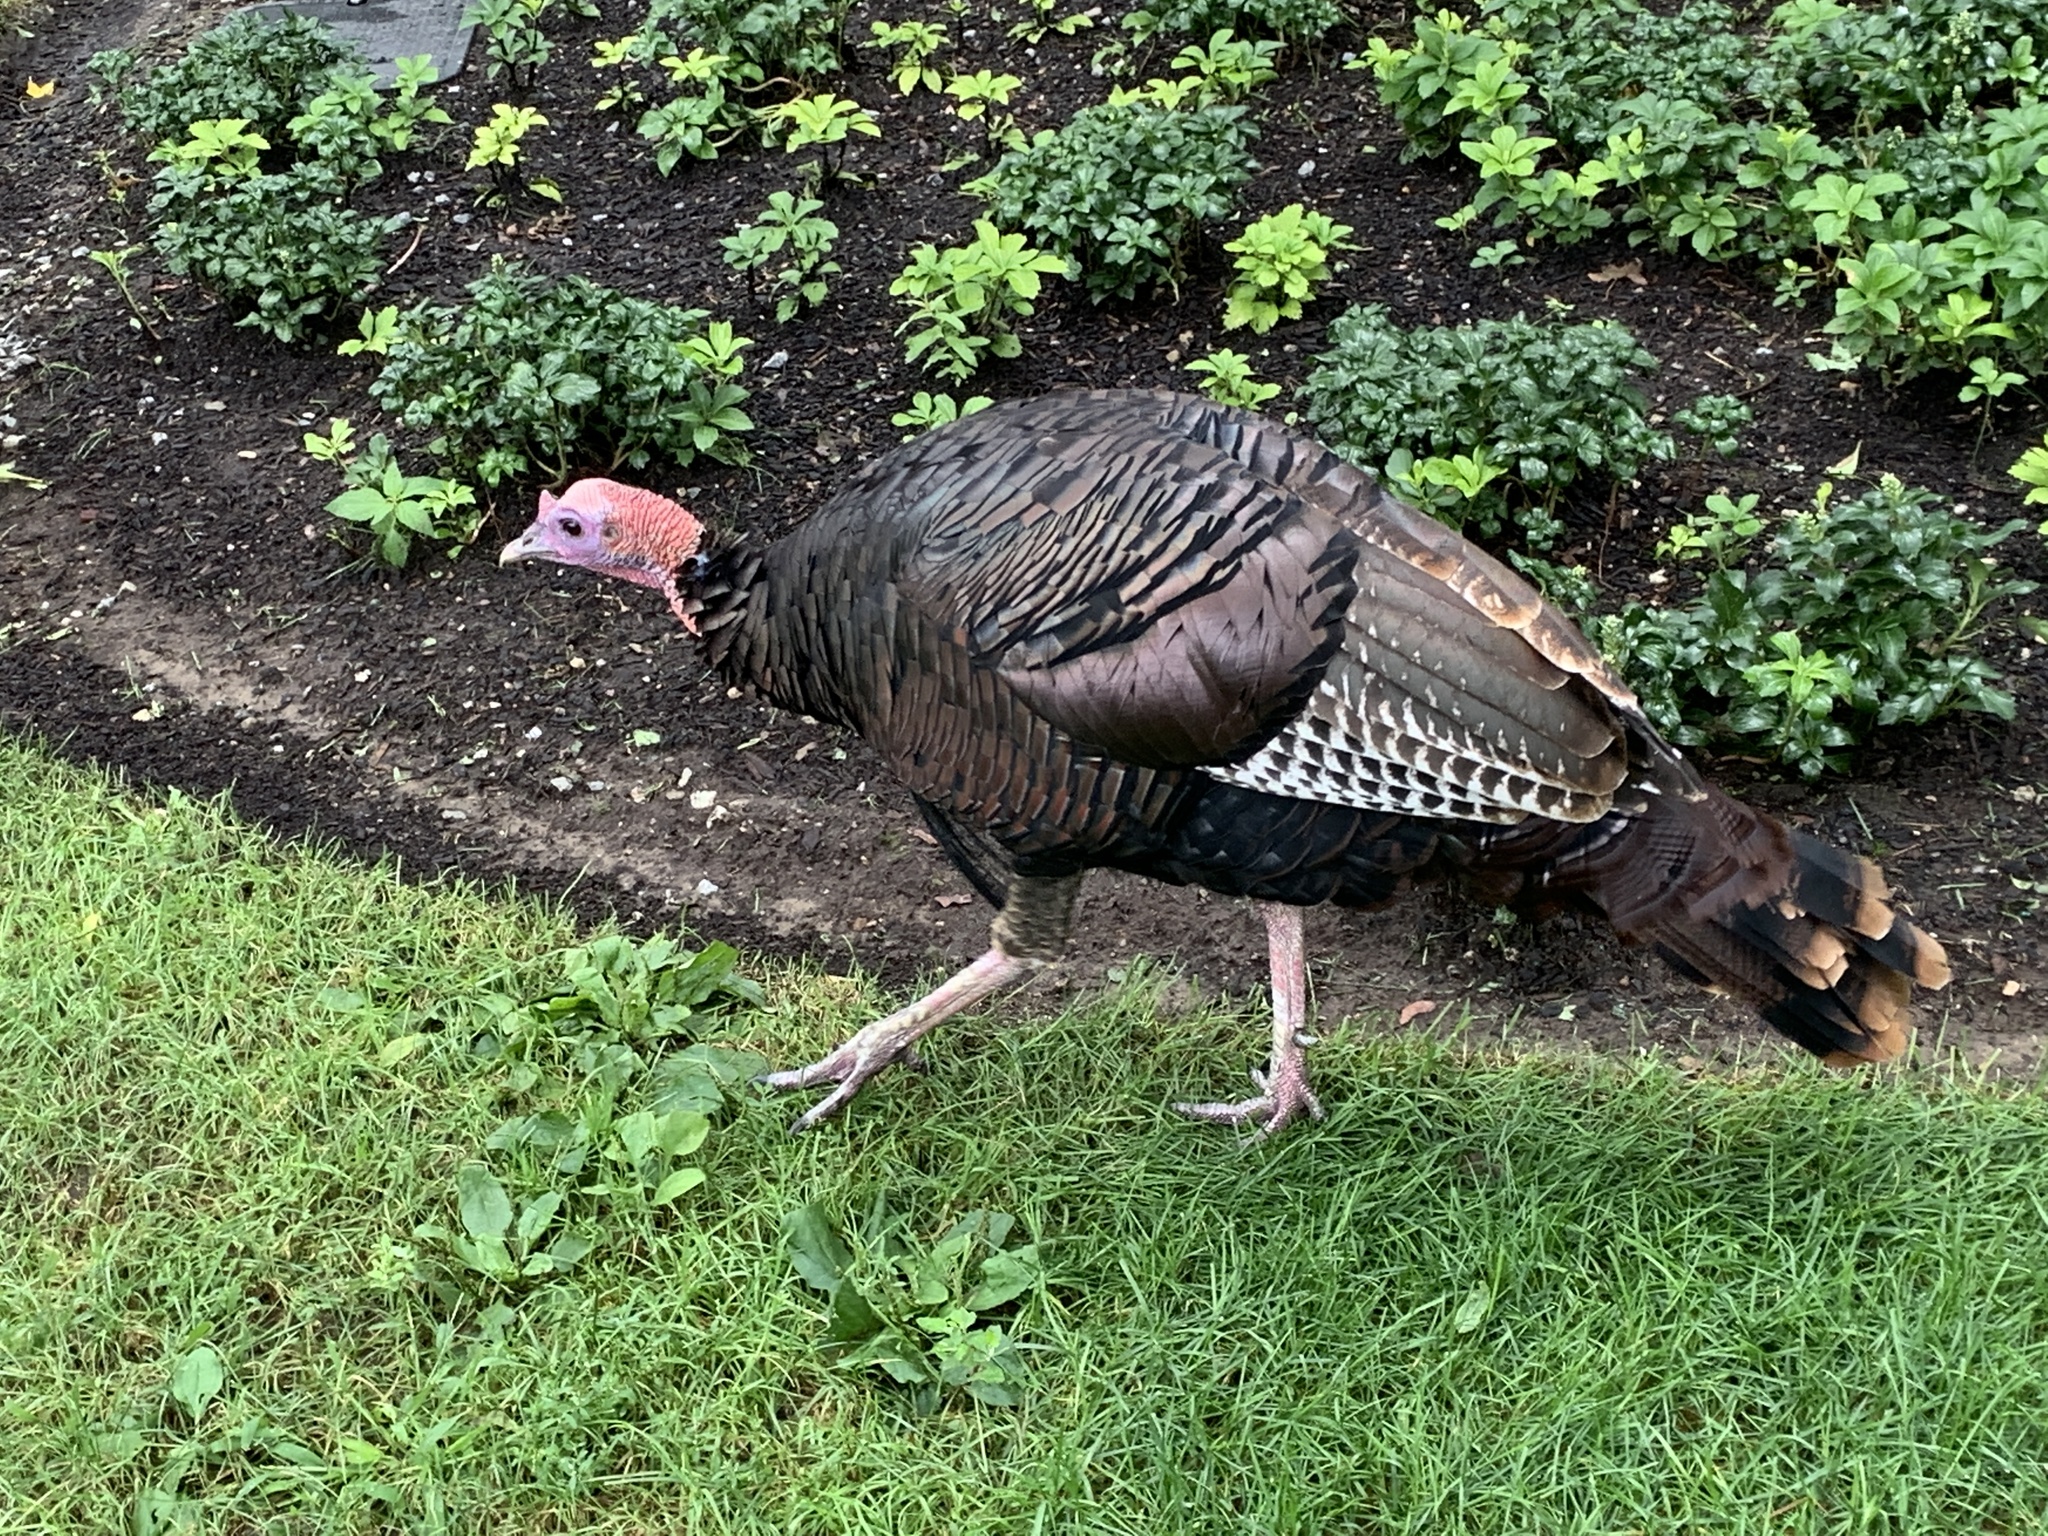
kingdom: Animalia
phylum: Chordata
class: Aves
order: Galliformes
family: Phasianidae
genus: Meleagris
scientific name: Meleagris gallopavo
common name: Wild turkey
